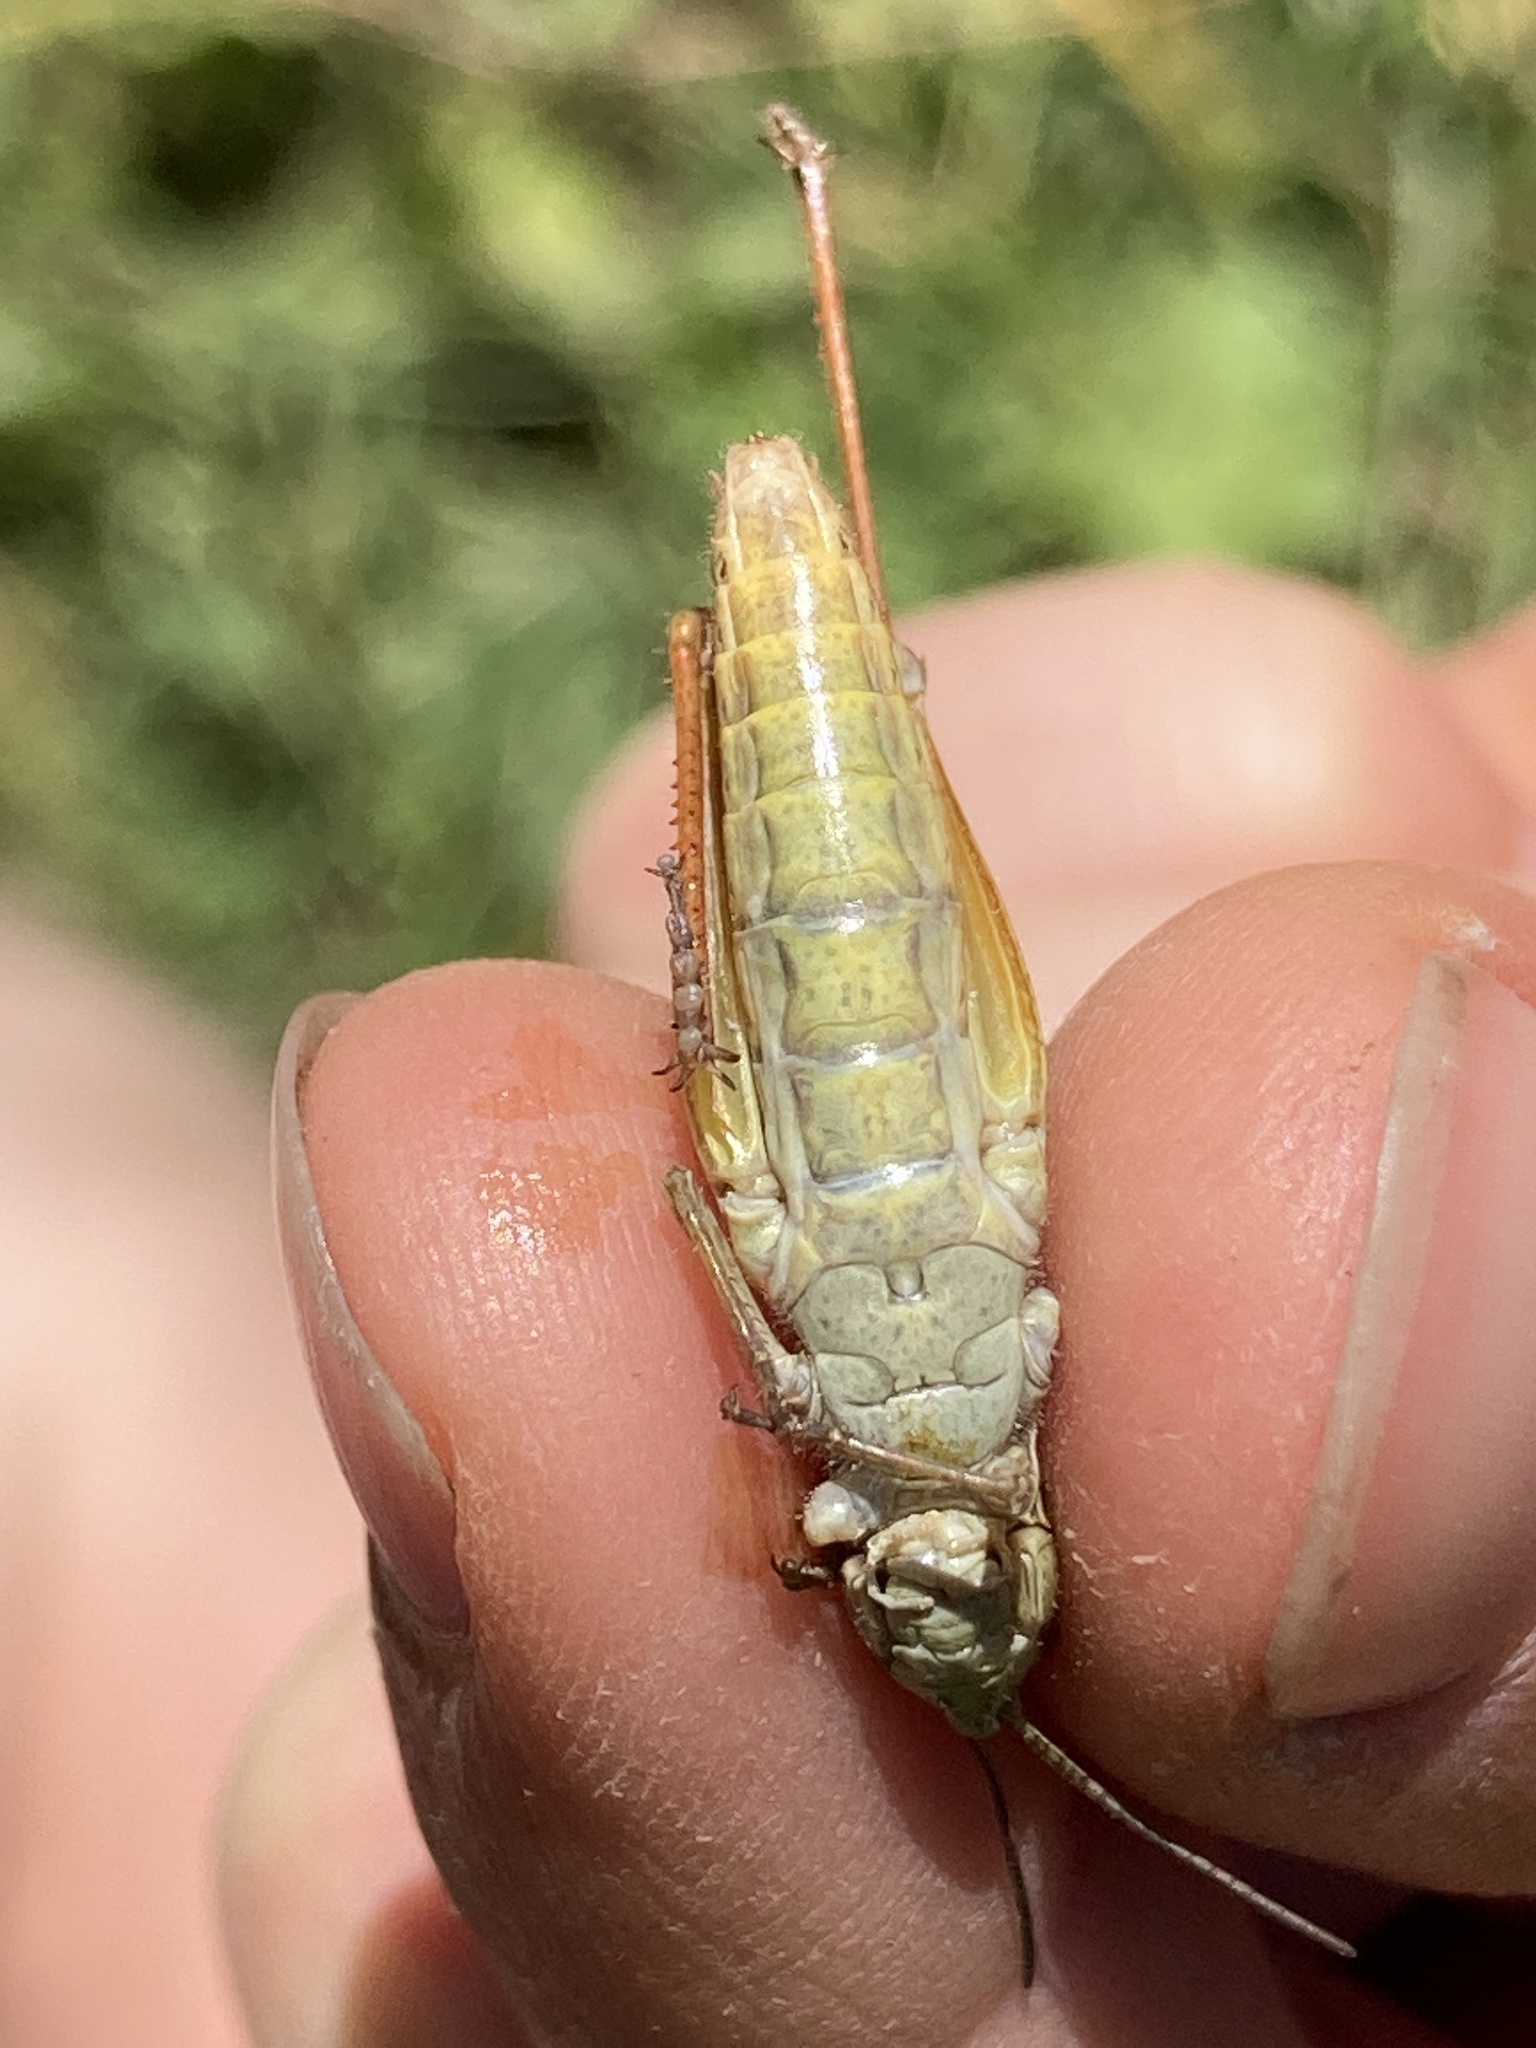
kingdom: Animalia
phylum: Arthropoda
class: Insecta
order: Orthoptera
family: Acrididae
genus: Chorthippus
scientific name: Chorthippus apricarius
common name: Upland field grasshopper
